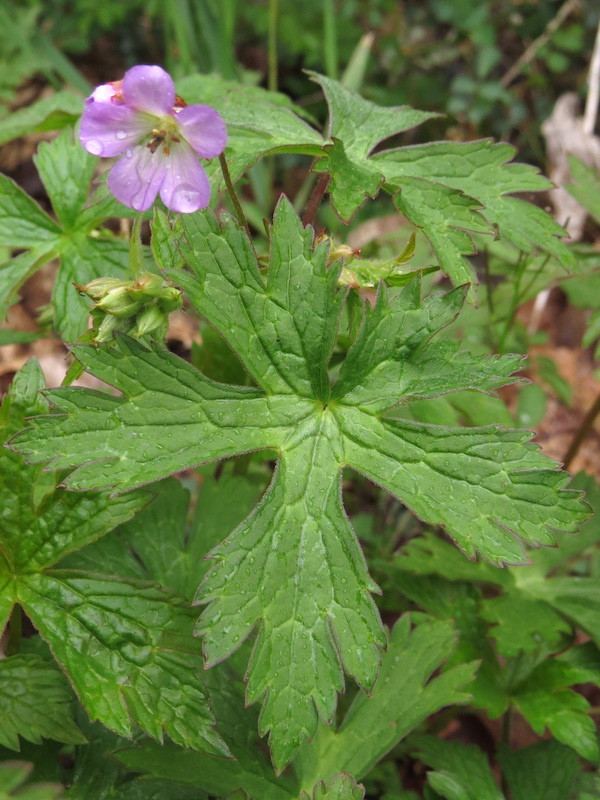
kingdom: Plantae
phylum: Tracheophyta
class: Magnoliopsida
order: Geraniales
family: Geraniaceae
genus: Geranium
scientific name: Geranium maculatum
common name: Spotted geranium
